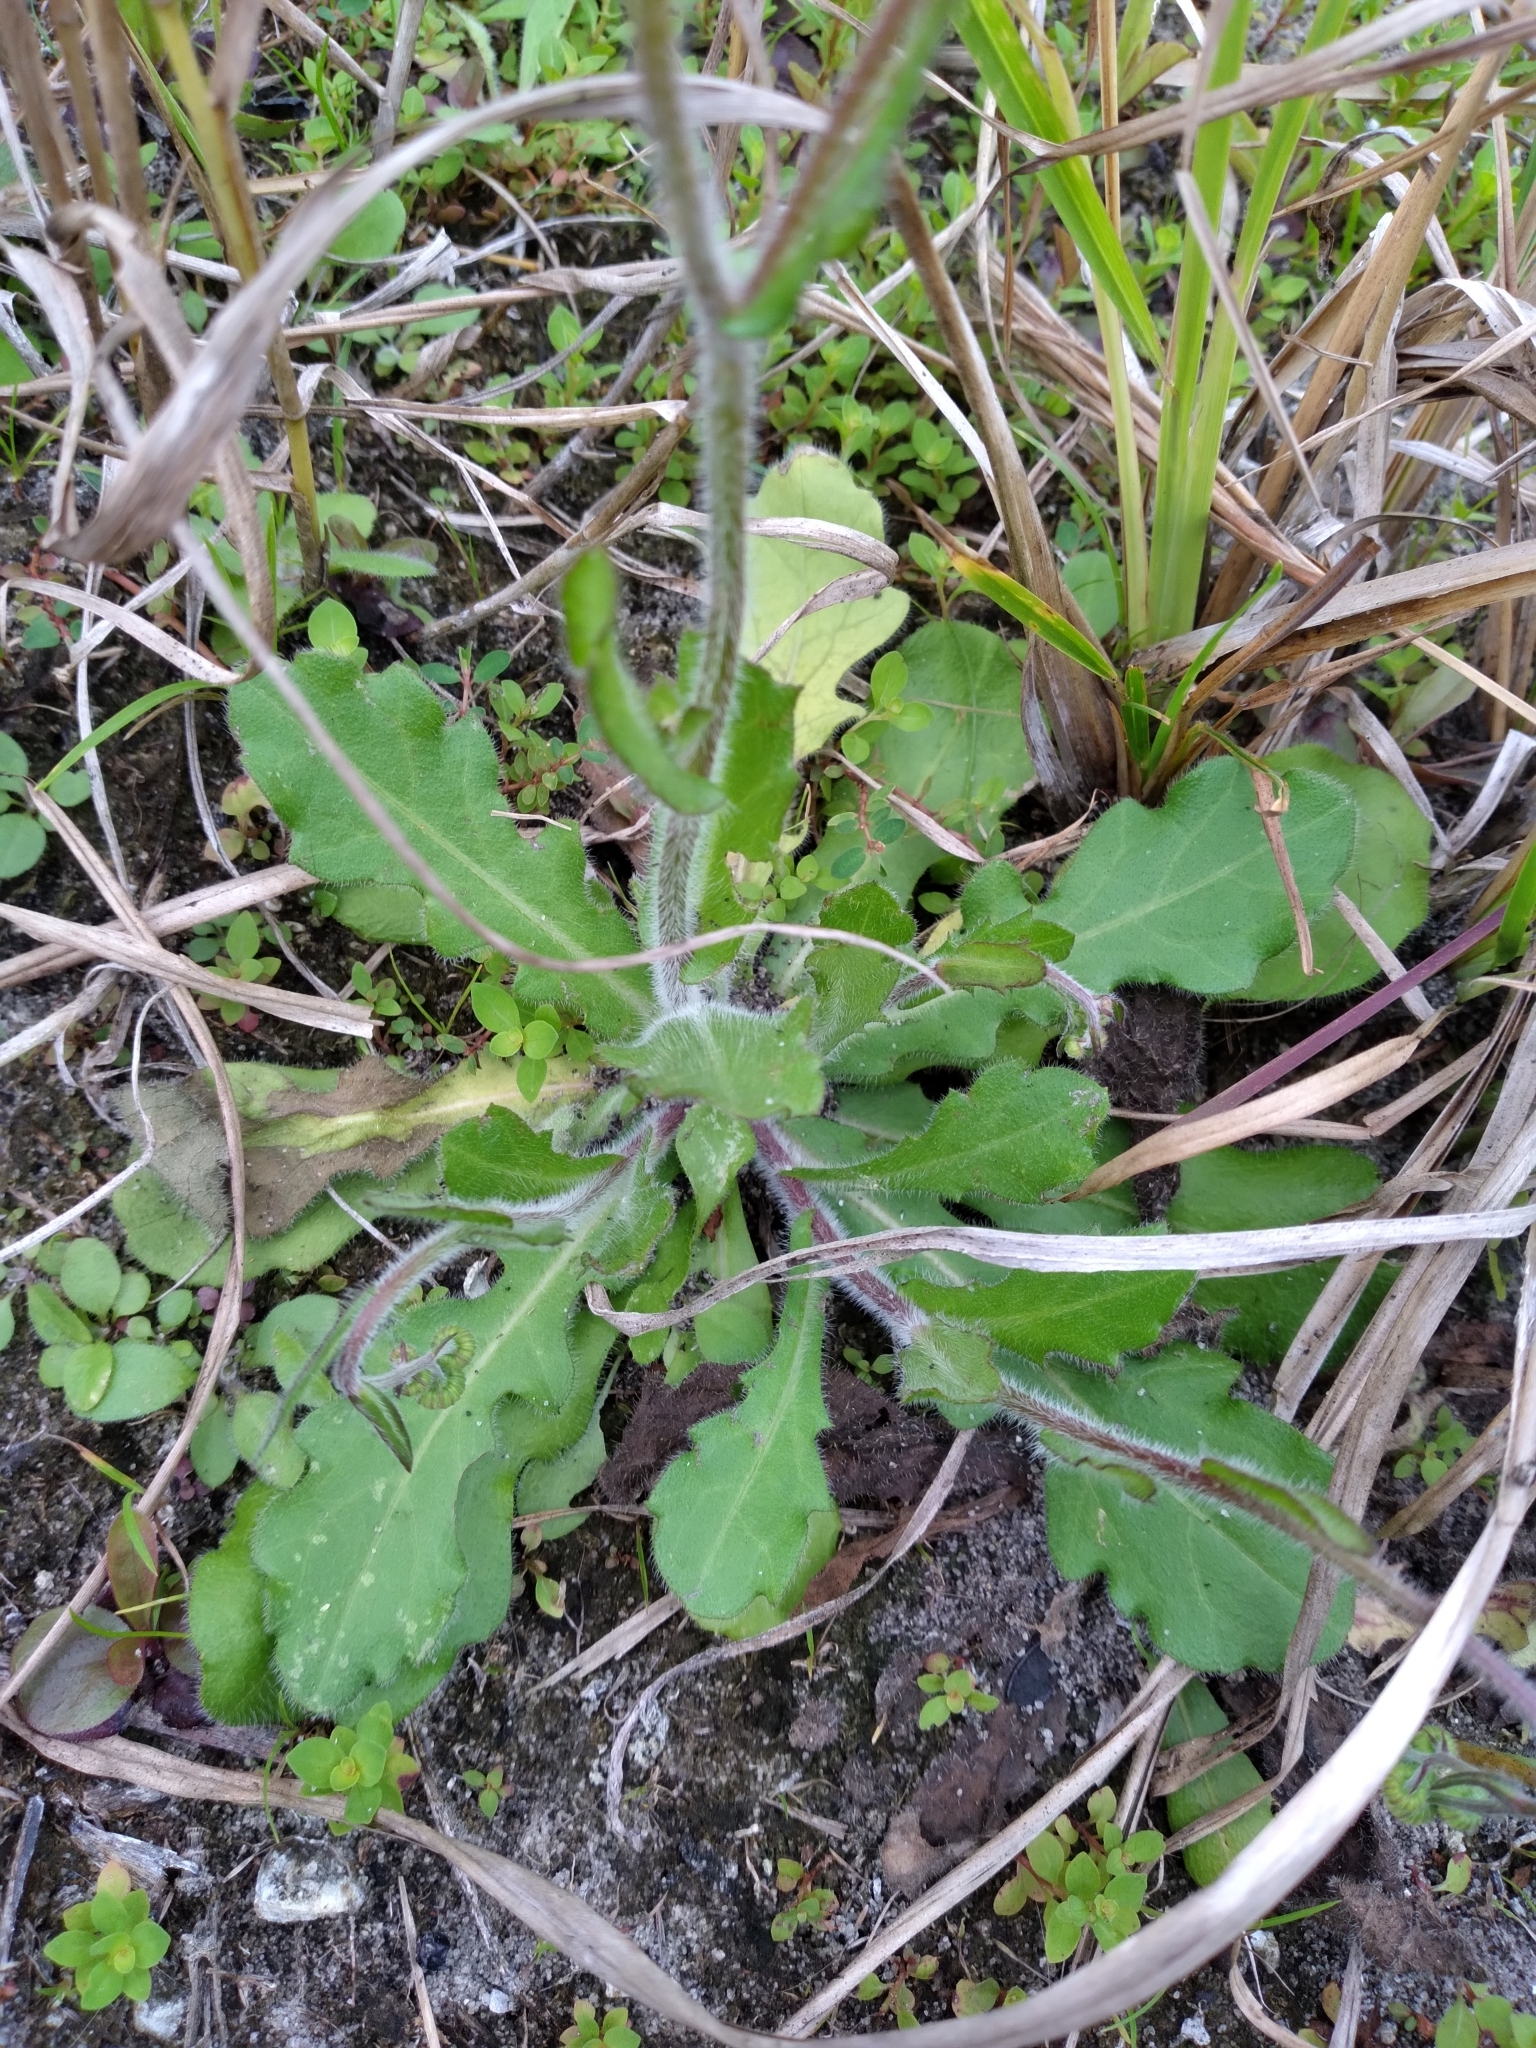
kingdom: Plantae
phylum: Tracheophyta
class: Magnoliopsida
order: Asterales
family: Asteraceae
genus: Erigeron
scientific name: Erigeron quercifolius
